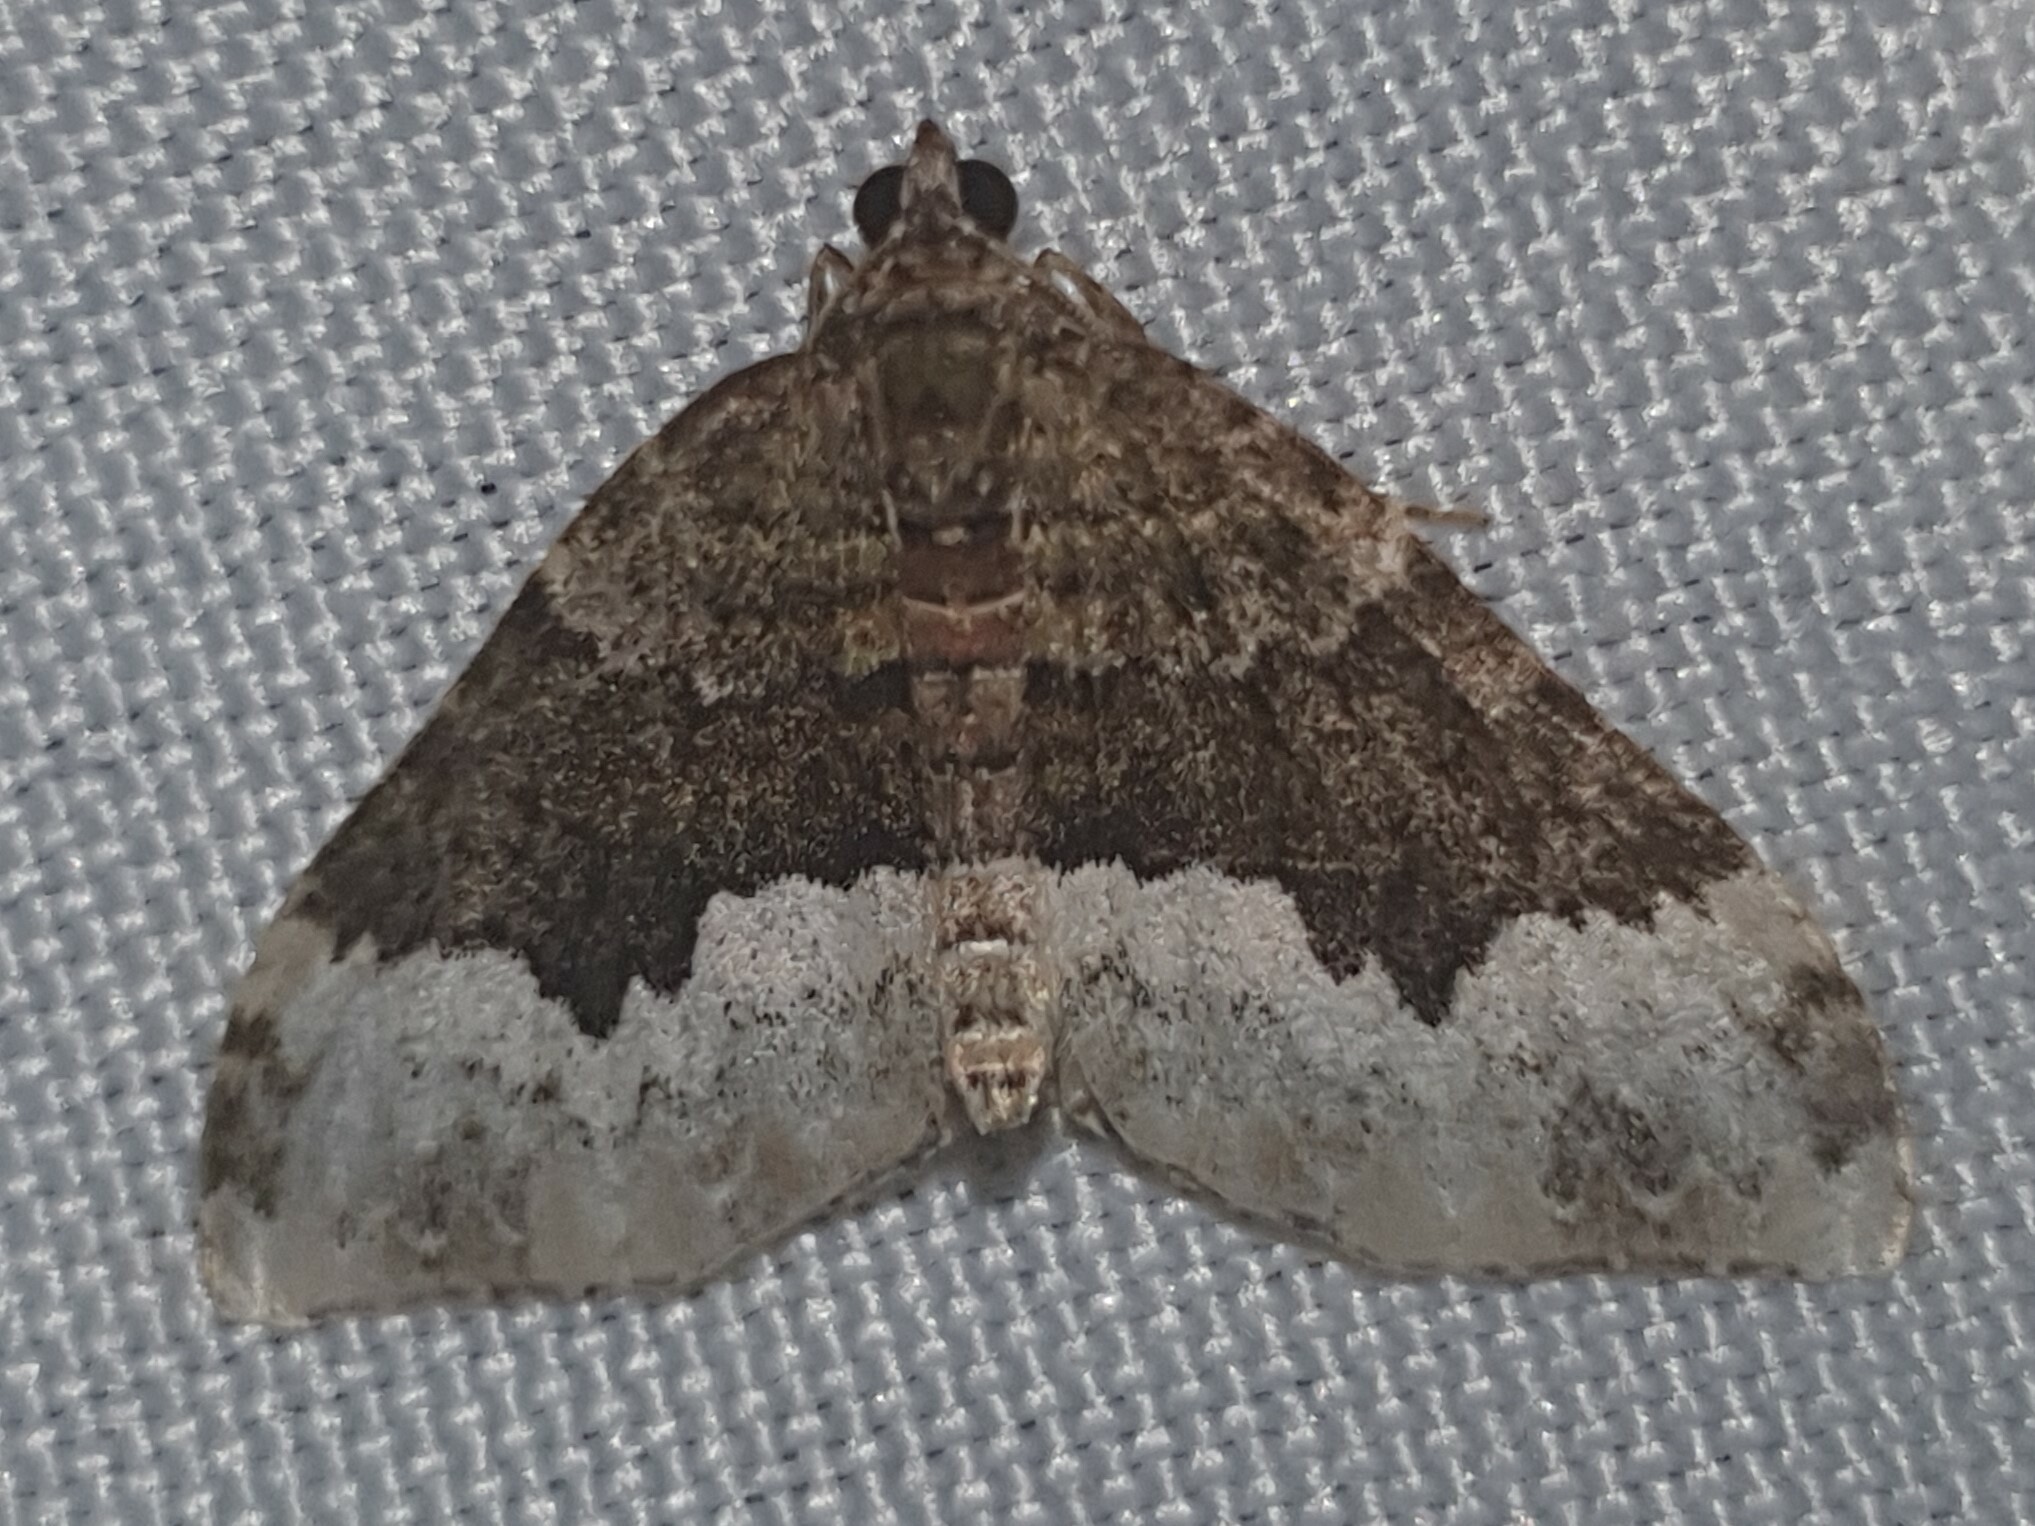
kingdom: Animalia
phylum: Arthropoda
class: Insecta
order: Lepidoptera
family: Geometridae
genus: Euphyia
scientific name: Euphyia biangulata
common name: Cloaked carpet
